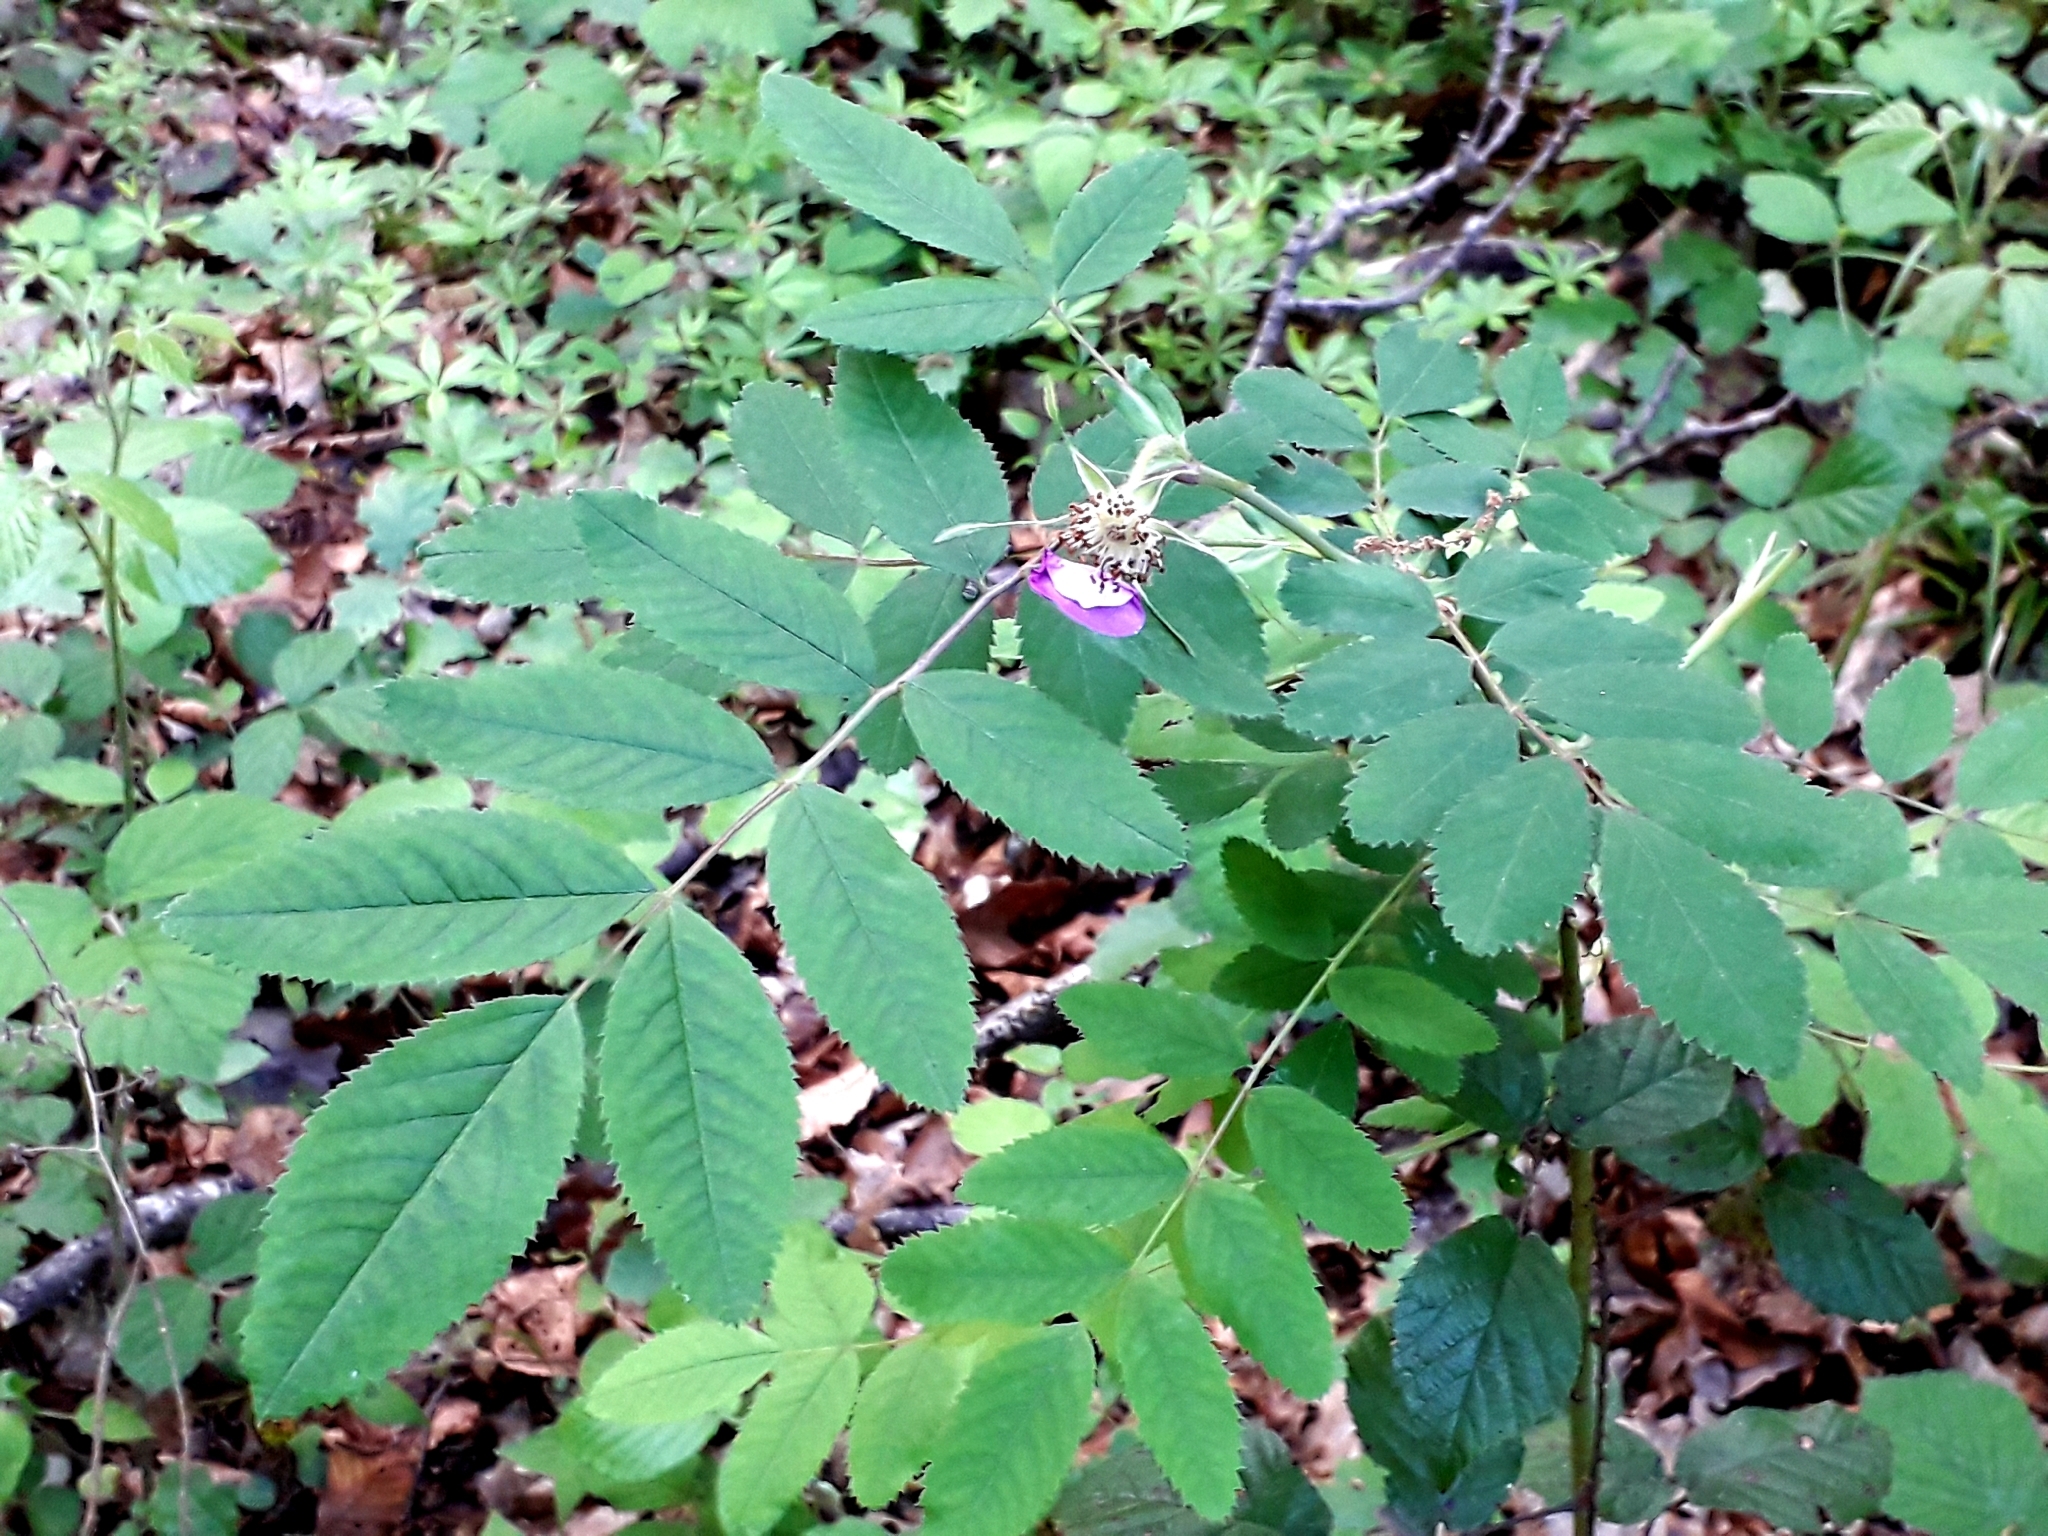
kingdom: Plantae
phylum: Tracheophyta
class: Magnoliopsida
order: Rosales
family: Rosaceae
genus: Rosa
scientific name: Rosa pendulina
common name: Alpine rose
